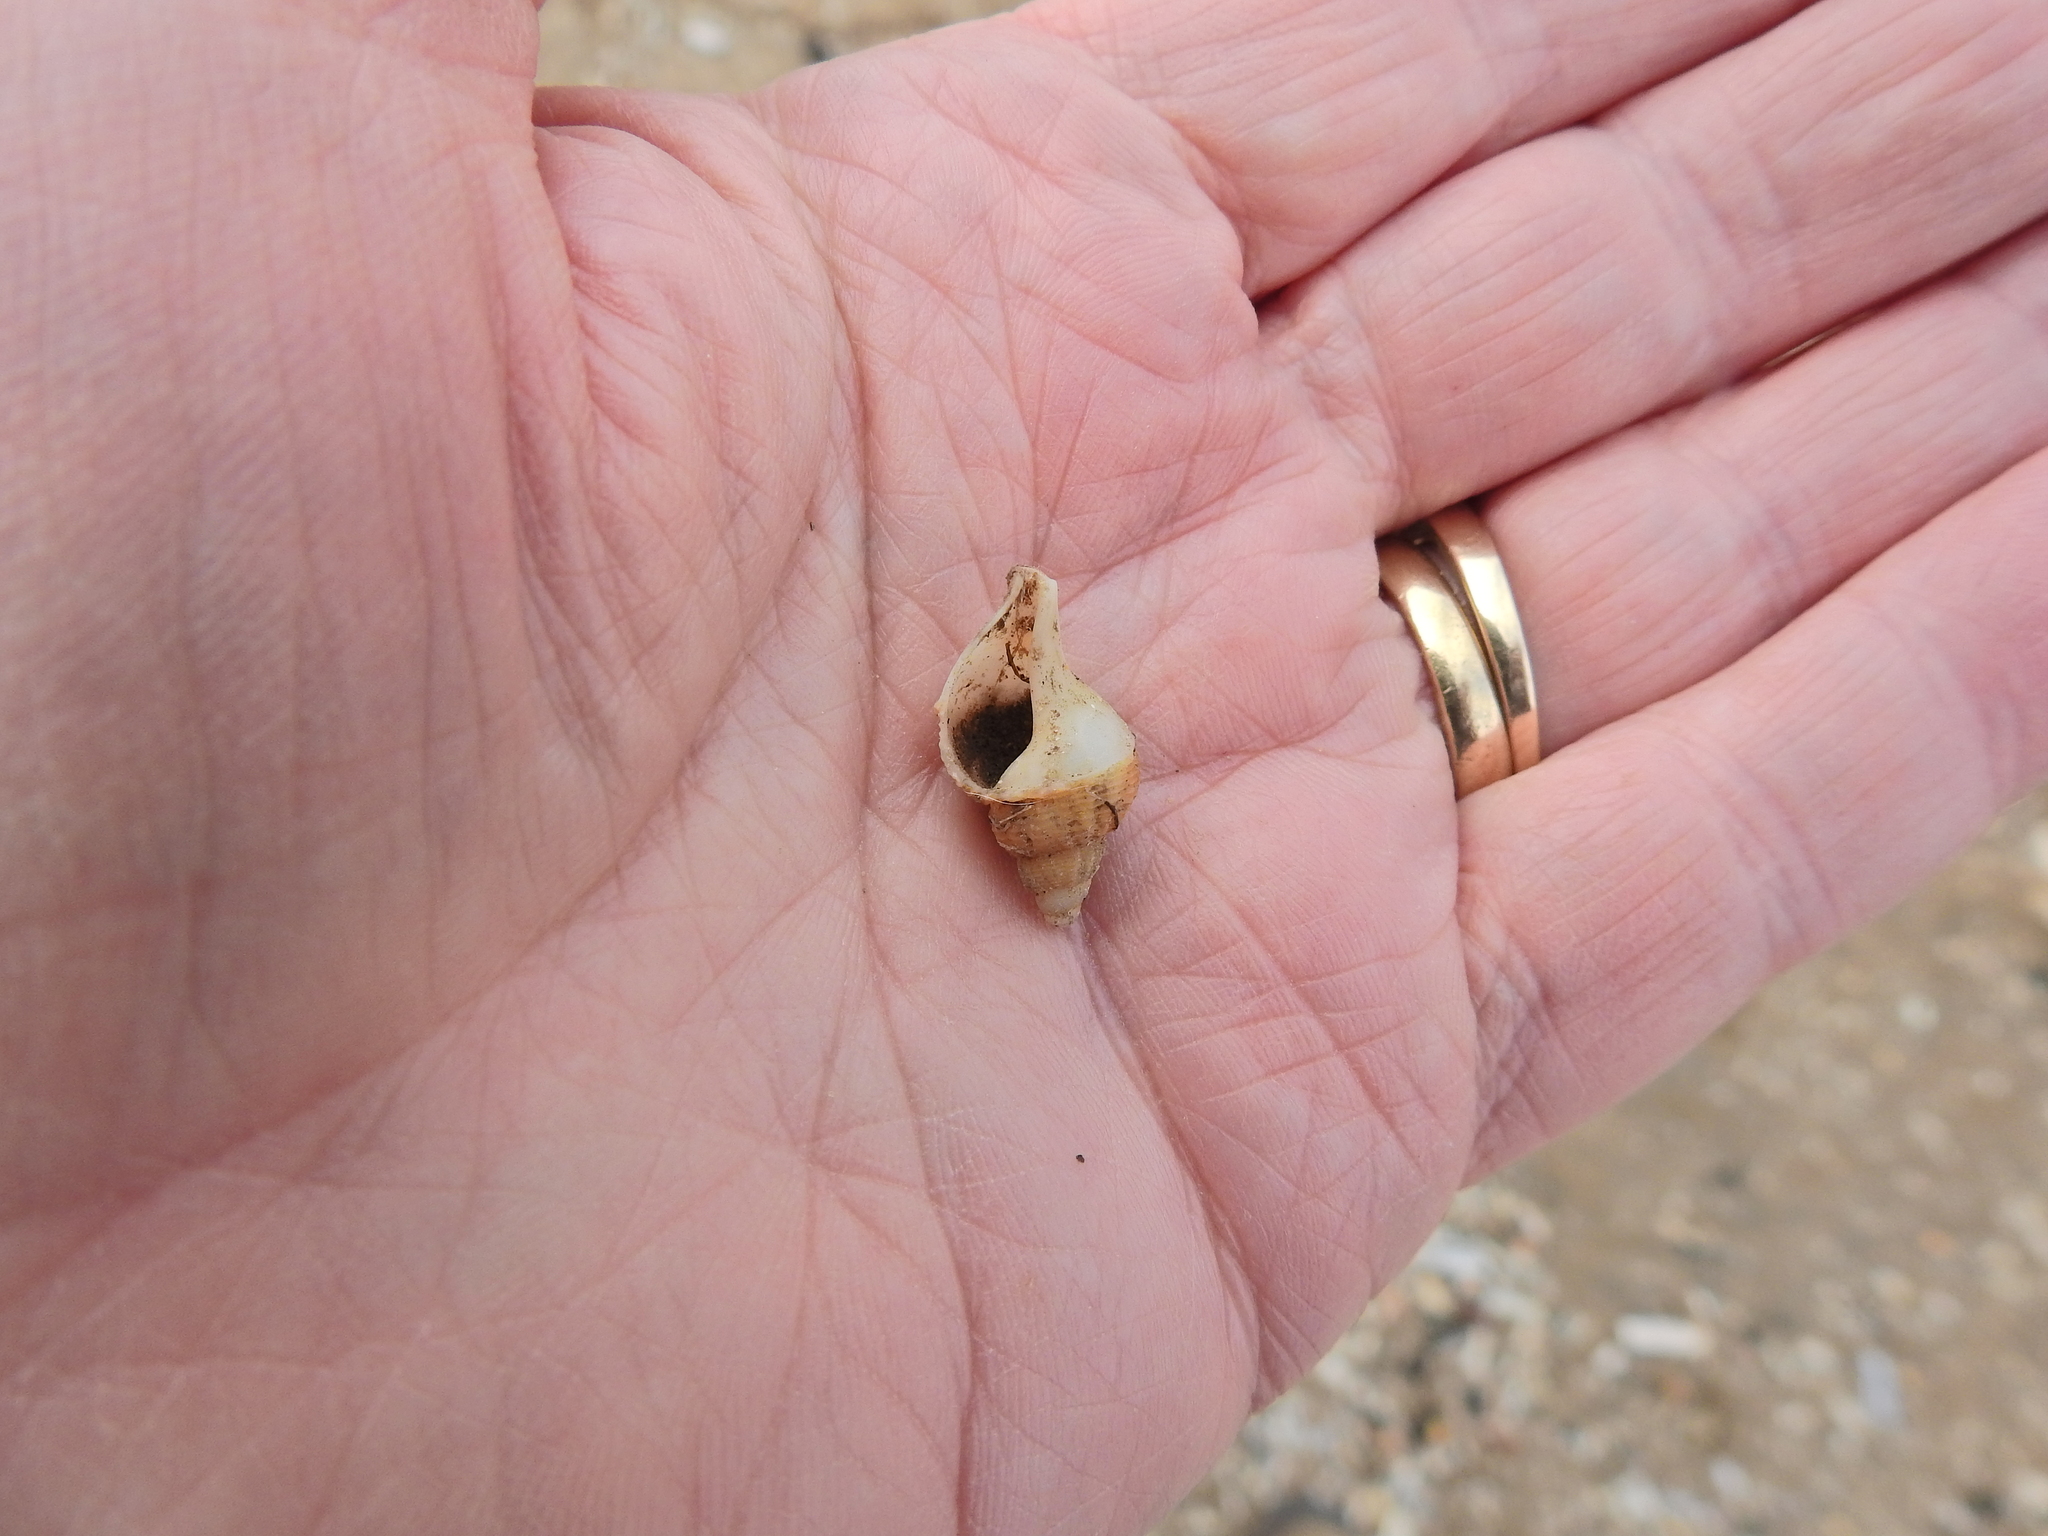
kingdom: Animalia
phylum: Mollusca
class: Gastropoda
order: Neogastropoda
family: Buccinidae
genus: Buccinum
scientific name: Buccinum undatum
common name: Common whelk
